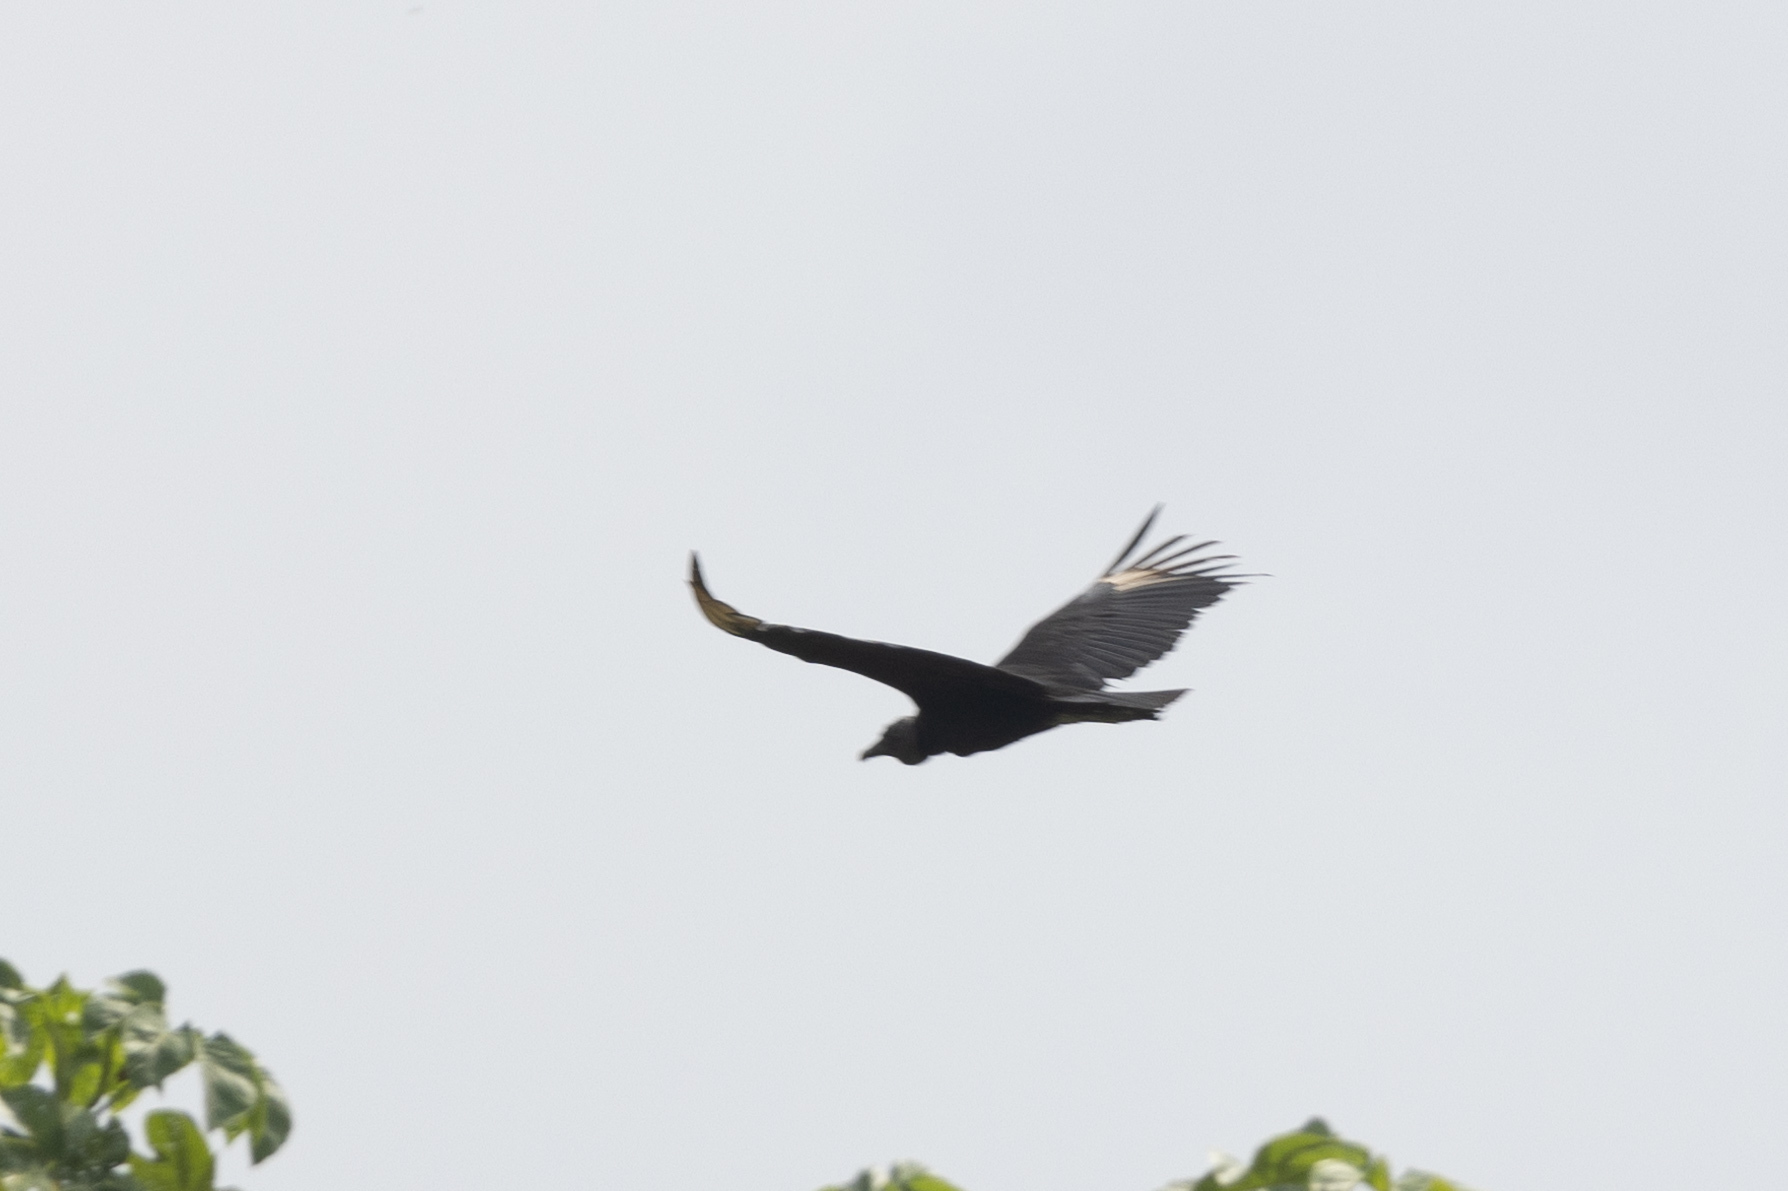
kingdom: Animalia
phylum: Chordata
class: Aves
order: Accipitriformes
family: Cathartidae
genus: Coragyps
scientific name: Coragyps atratus
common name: Black vulture
